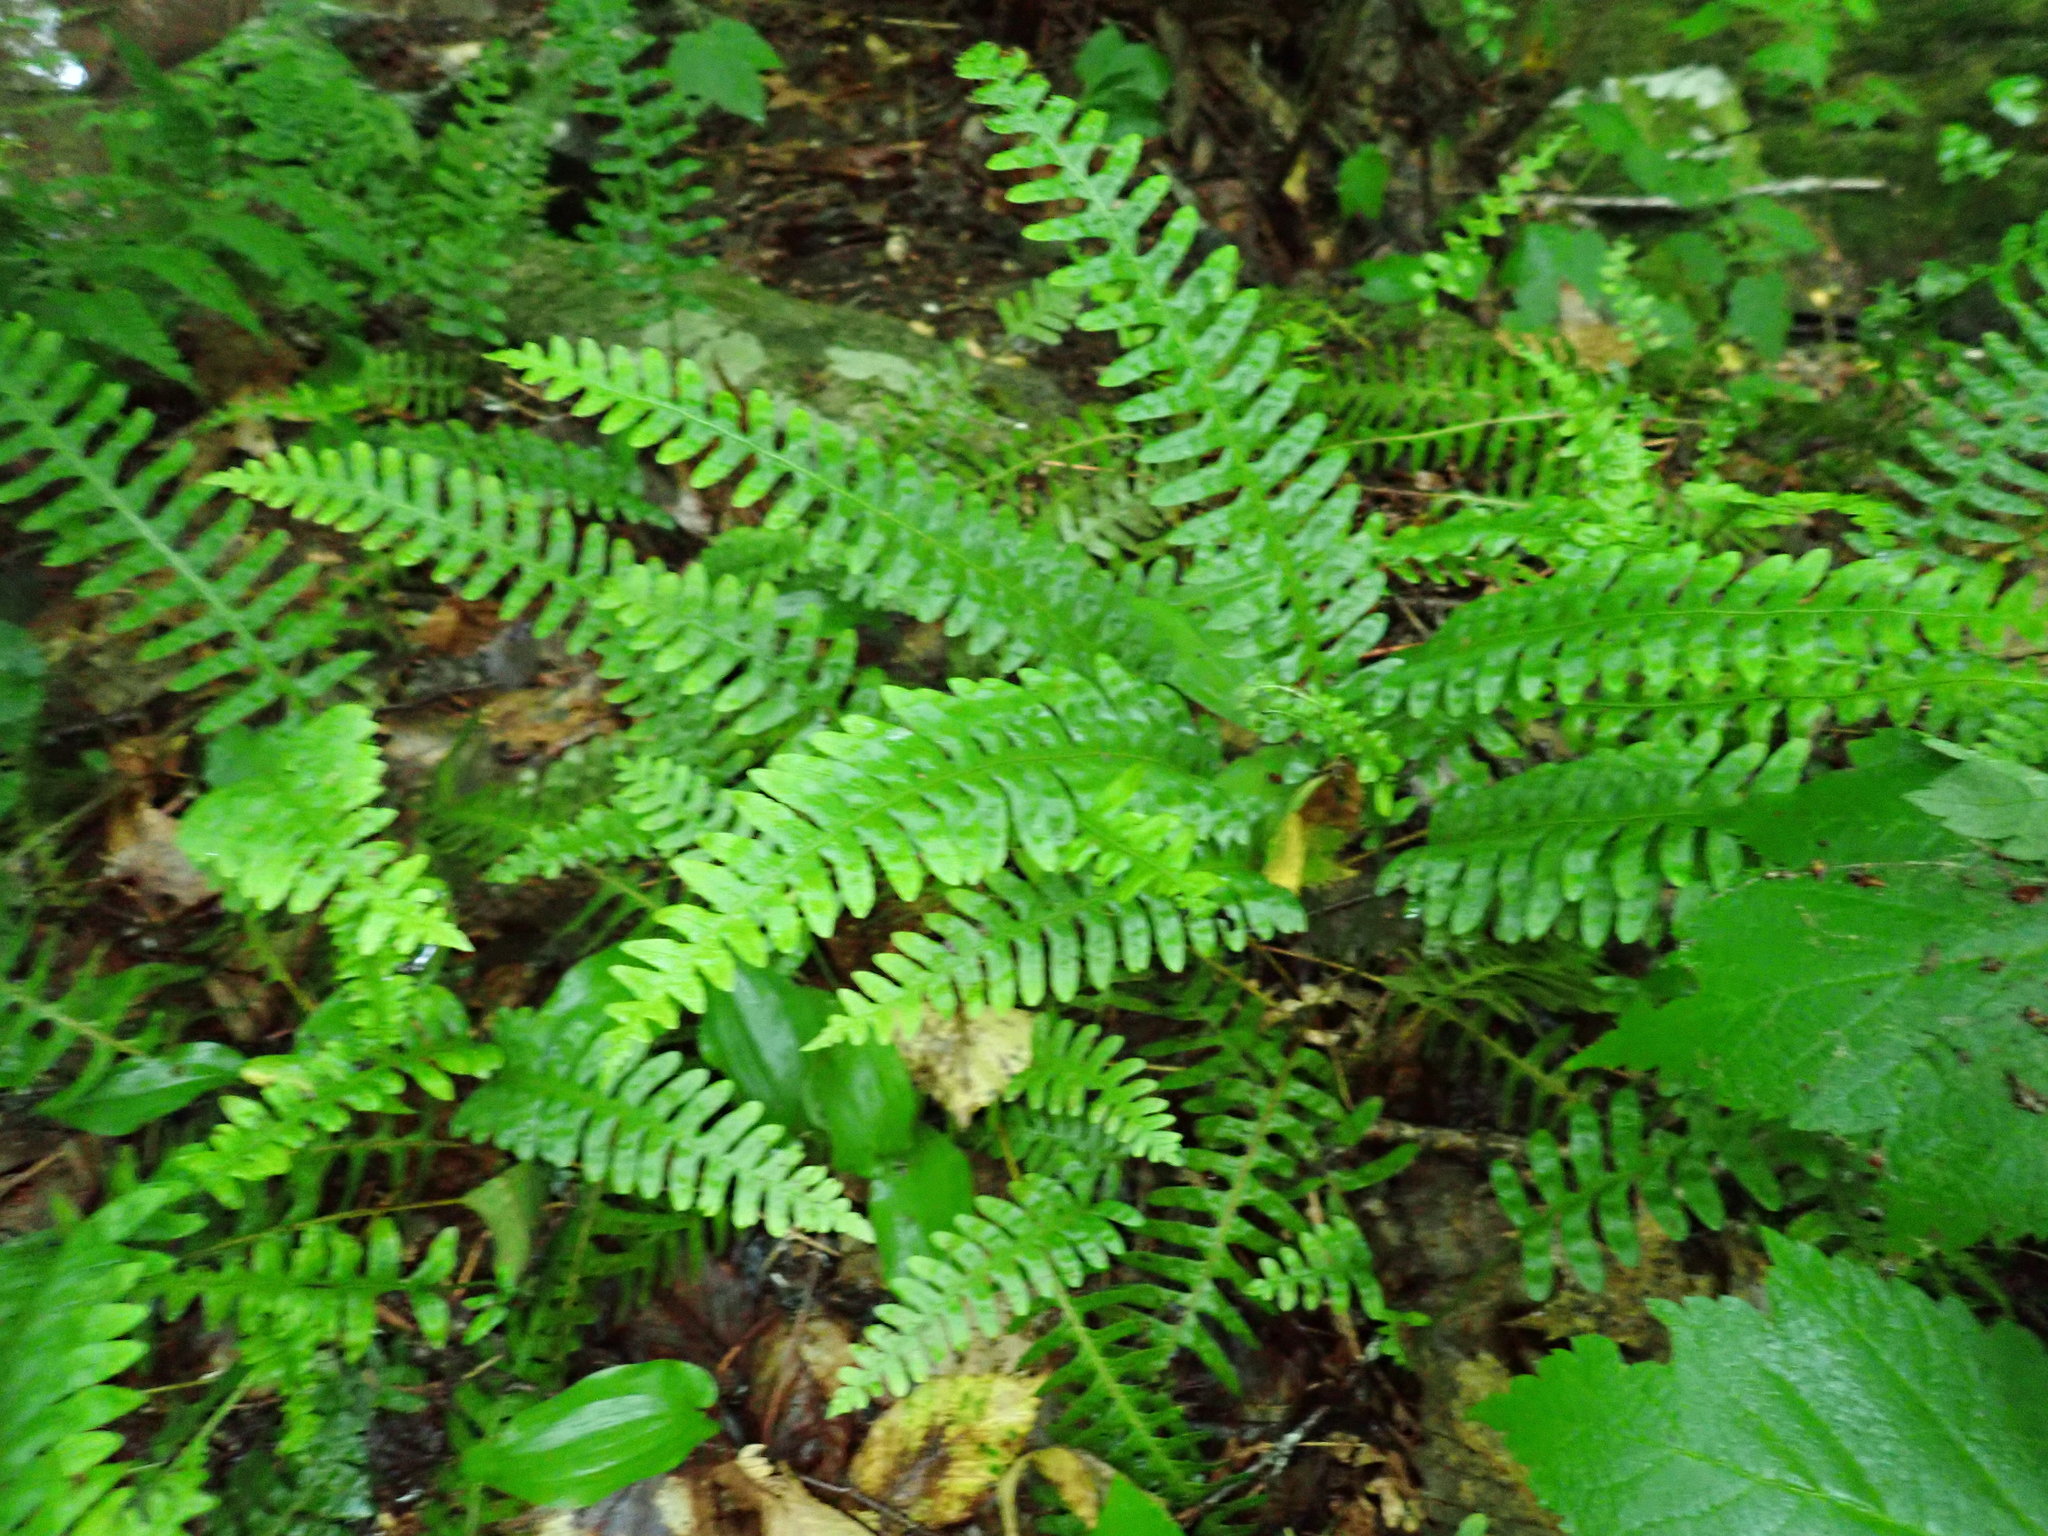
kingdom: Plantae
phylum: Tracheophyta
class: Polypodiopsida
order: Polypodiales
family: Polypodiaceae
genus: Polypodium
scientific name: Polypodium
